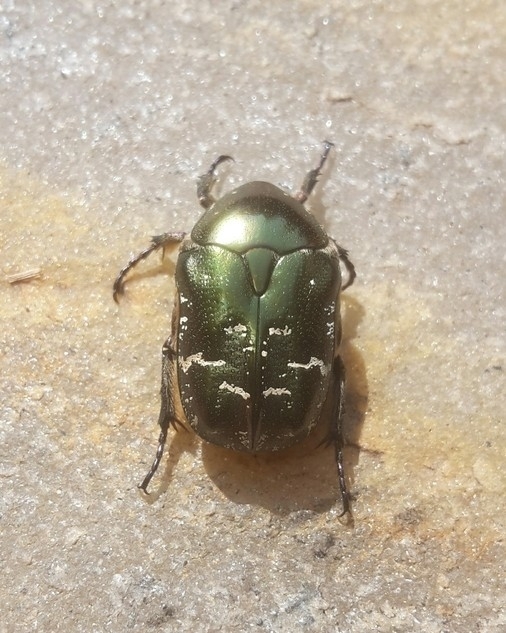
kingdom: Animalia
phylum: Arthropoda
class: Insecta
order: Coleoptera
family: Scarabaeidae
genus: Protaetia
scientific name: Protaetia cuprea
